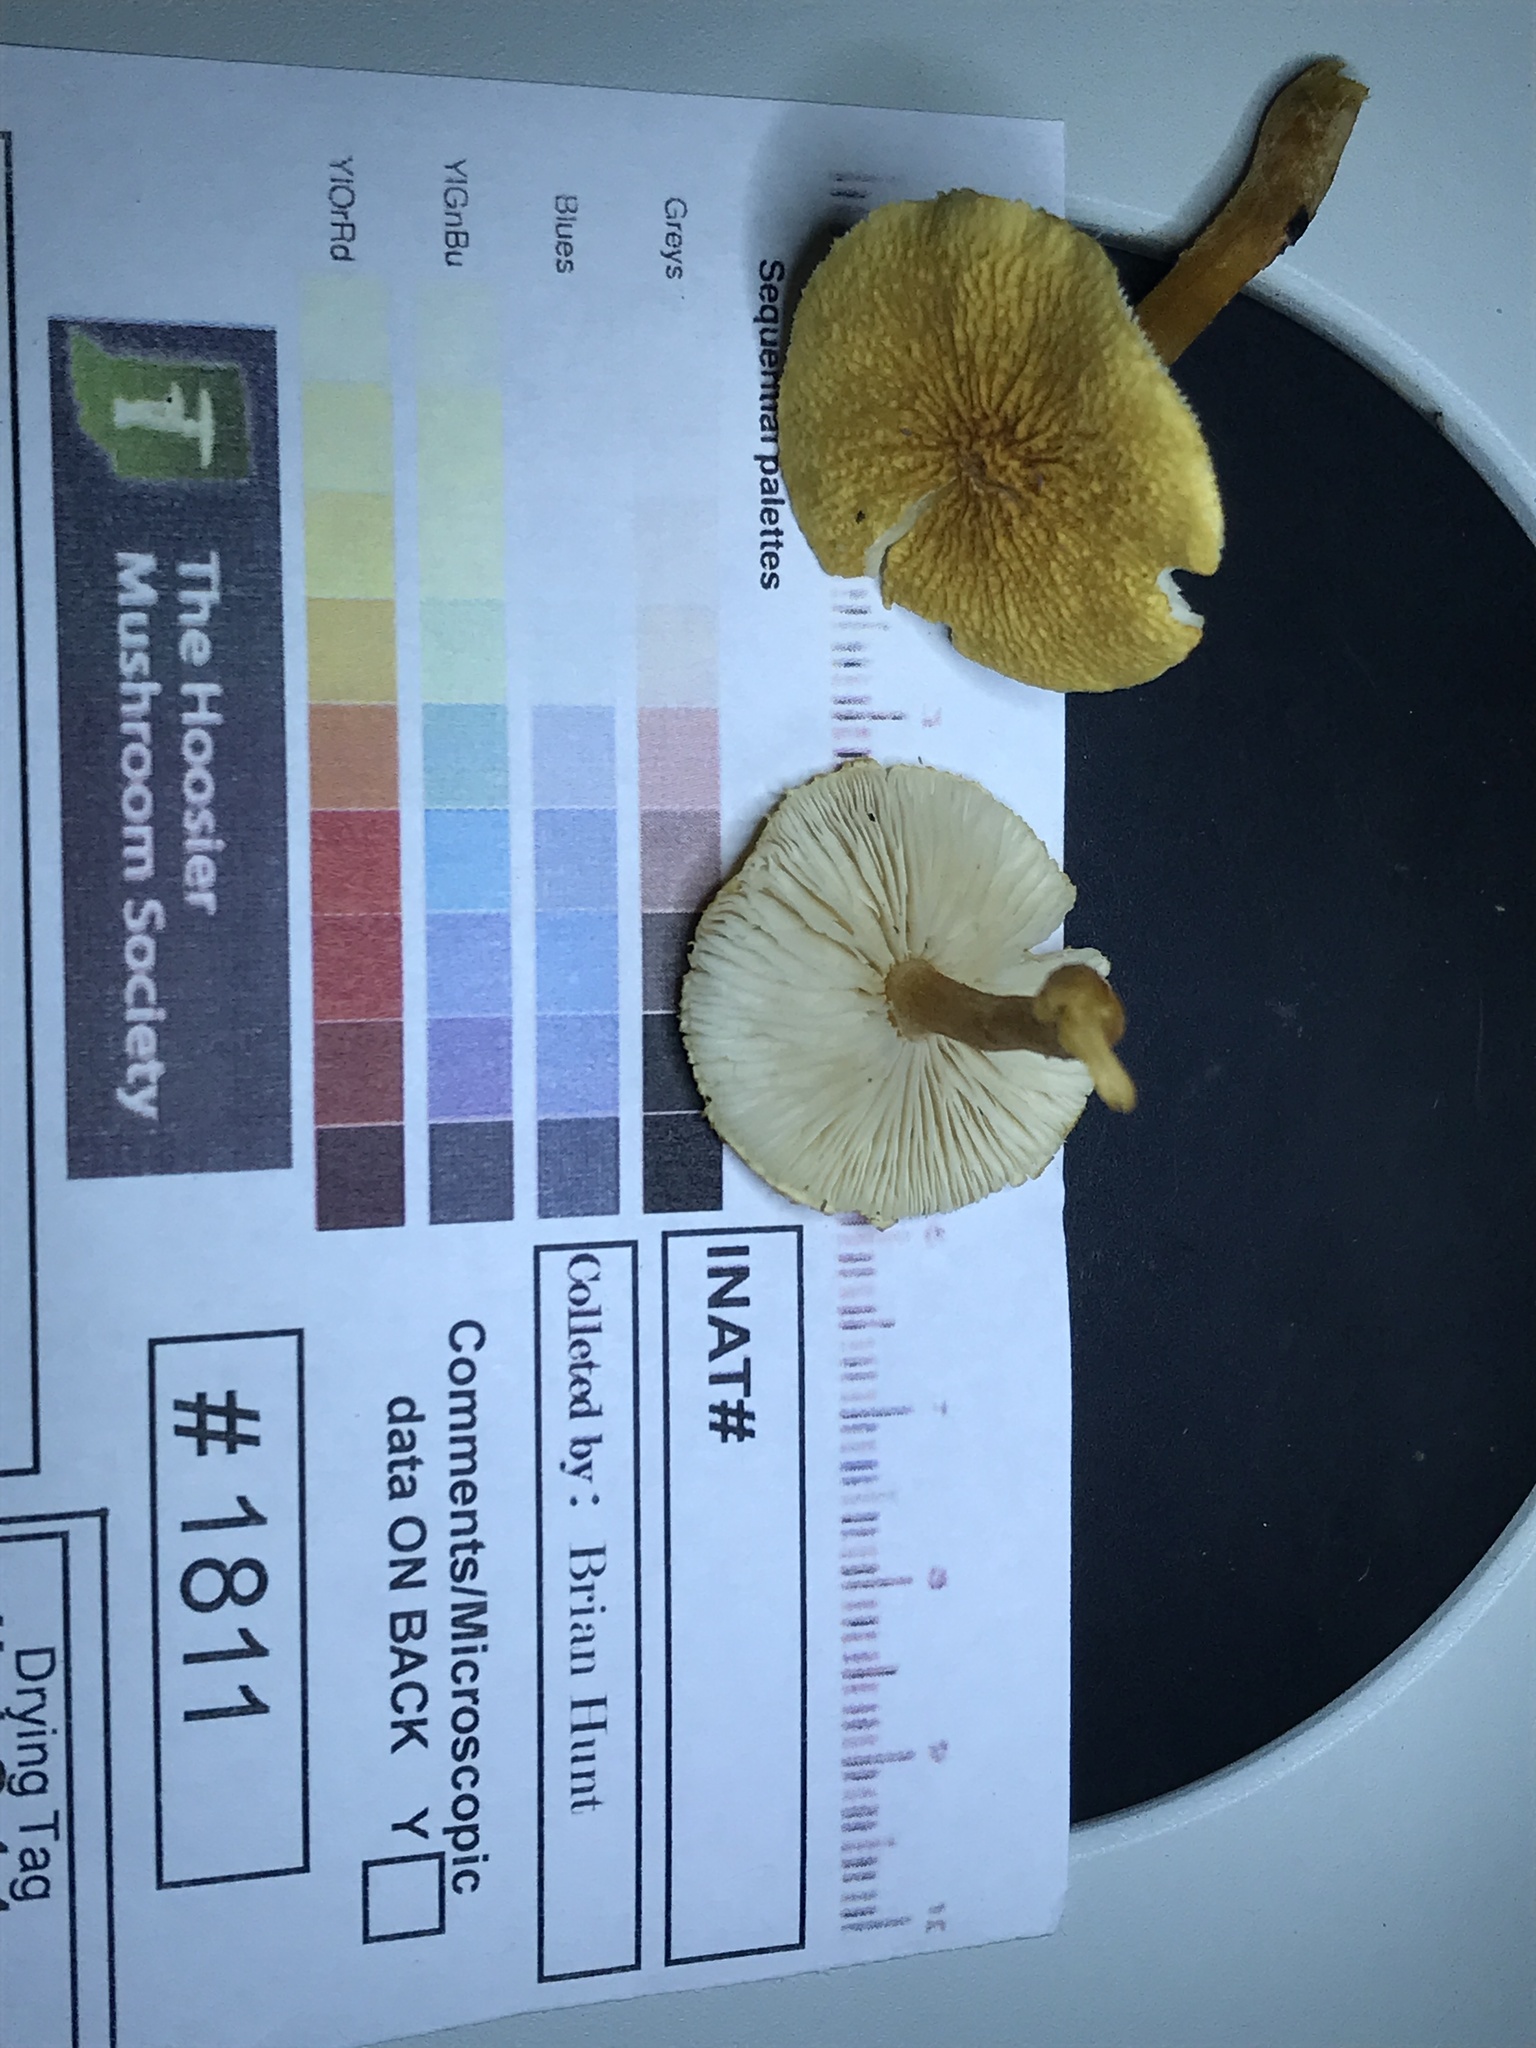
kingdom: Fungi
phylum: Basidiomycota
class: Agaricomycetes
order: Agaricales
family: Tricholomataceae
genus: Cystoderma
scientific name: Cystoderma amianthinum
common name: Earthy powdercap
